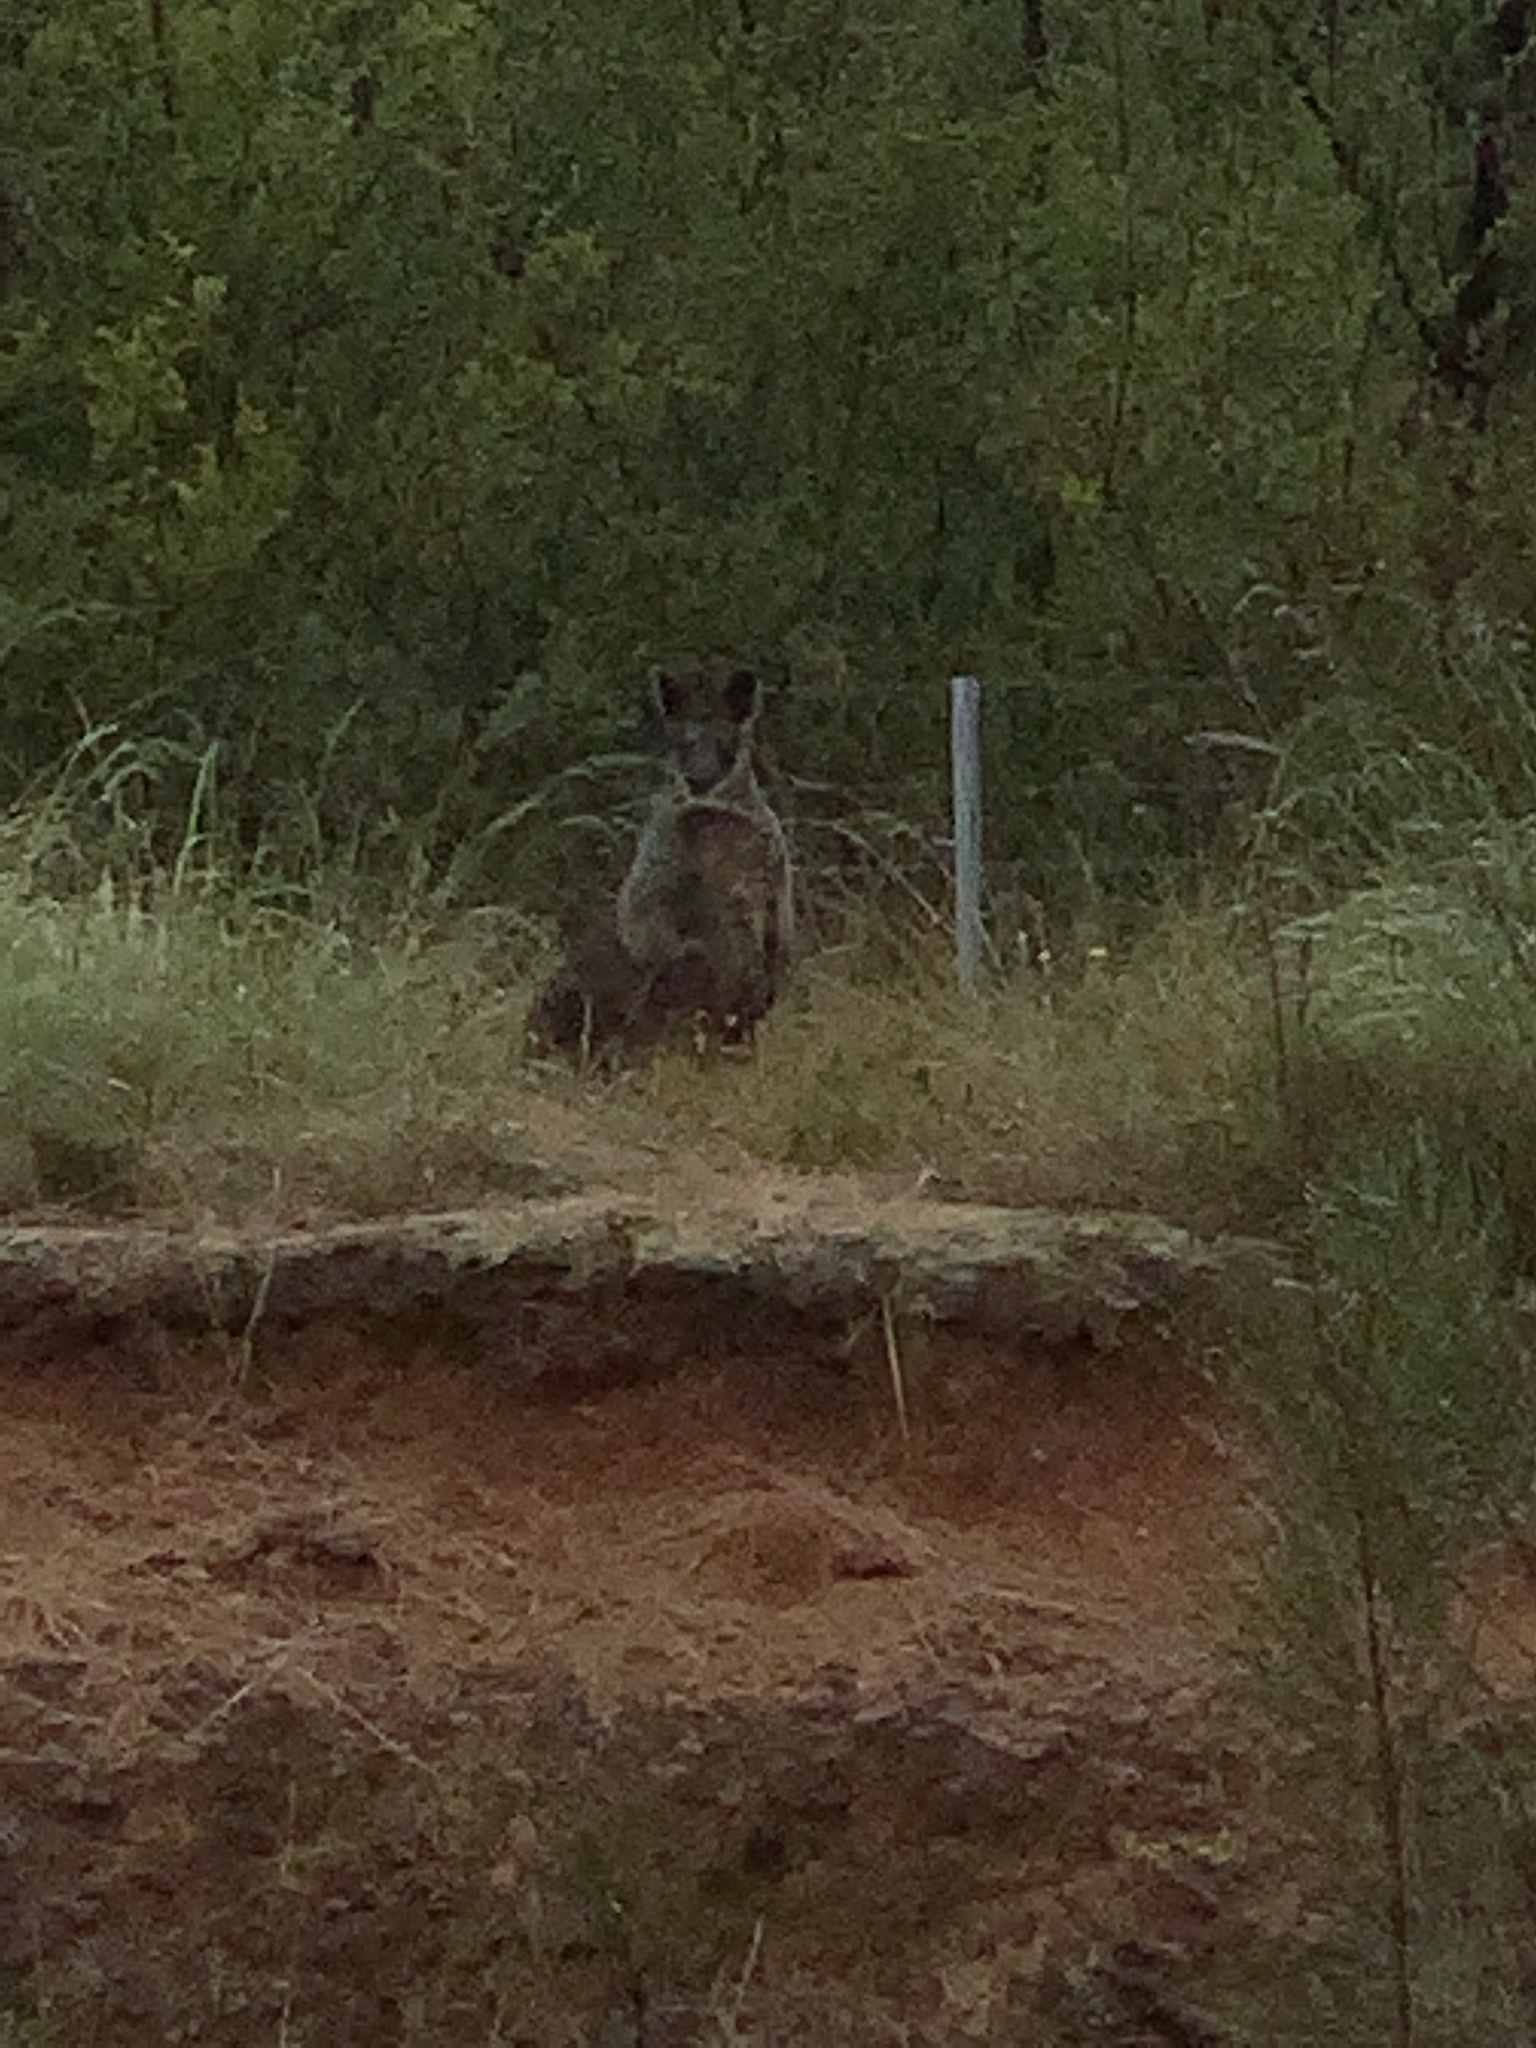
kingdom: Animalia
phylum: Chordata
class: Mammalia
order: Diprotodontia
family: Macropodidae
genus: Wallabia
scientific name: Wallabia bicolor
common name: Swamp wallaby
